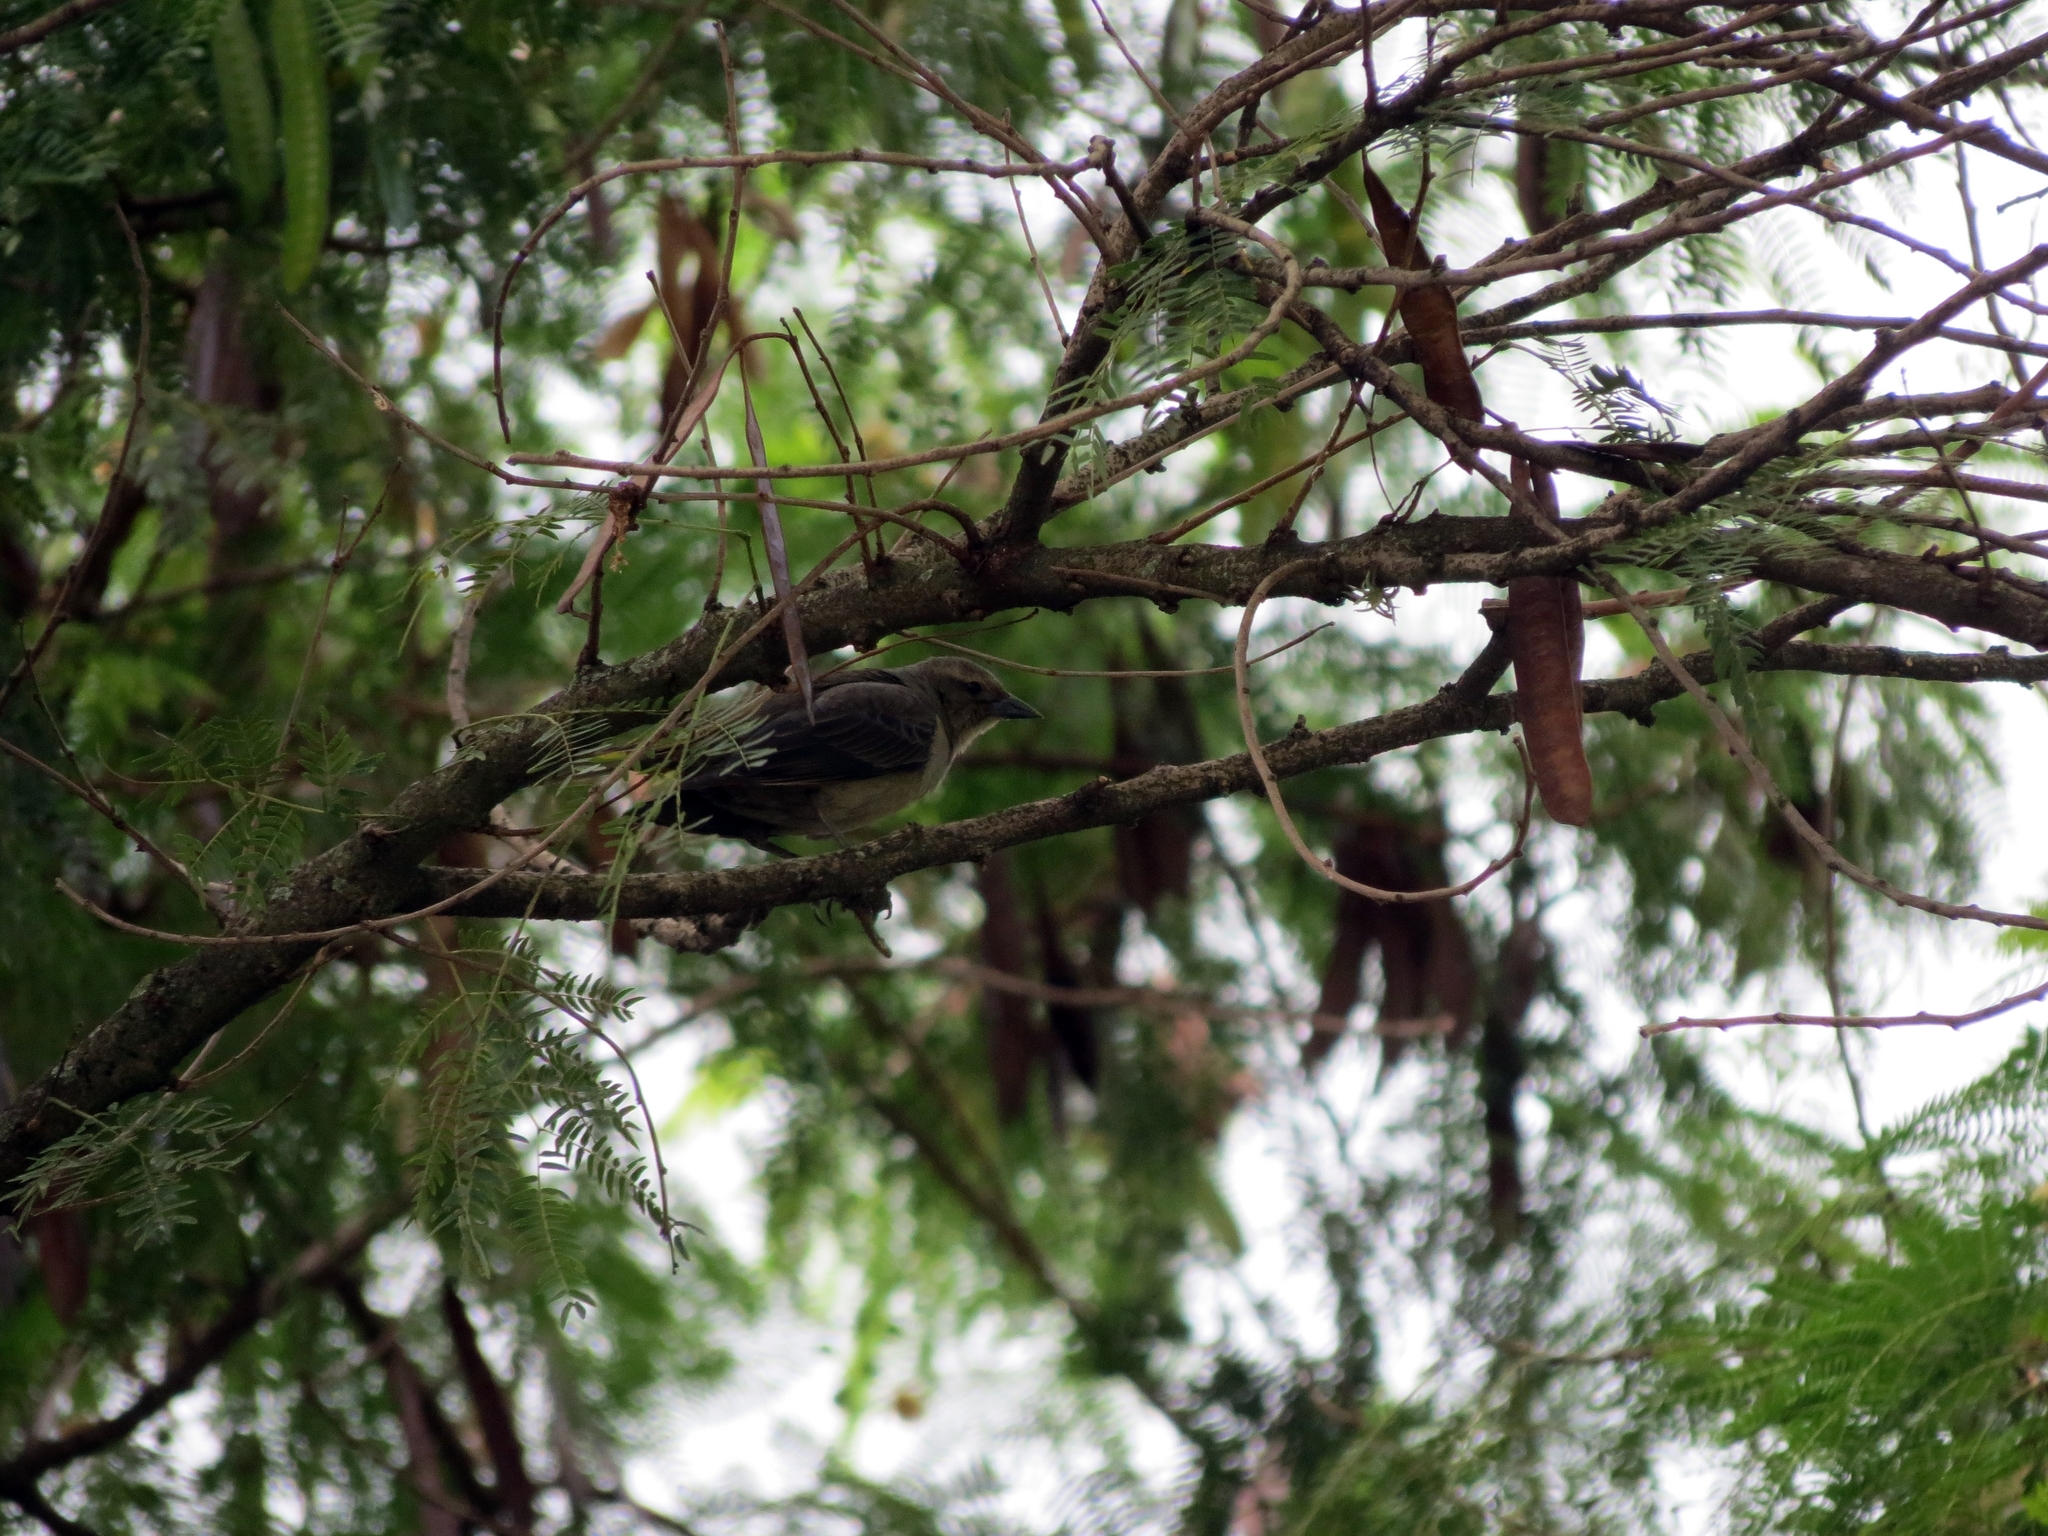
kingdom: Animalia
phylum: Chordata
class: Aves
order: Passeriformes
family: Icteridae
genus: Molothrus
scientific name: Molothrus bonariensis
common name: Shiny cowbird
